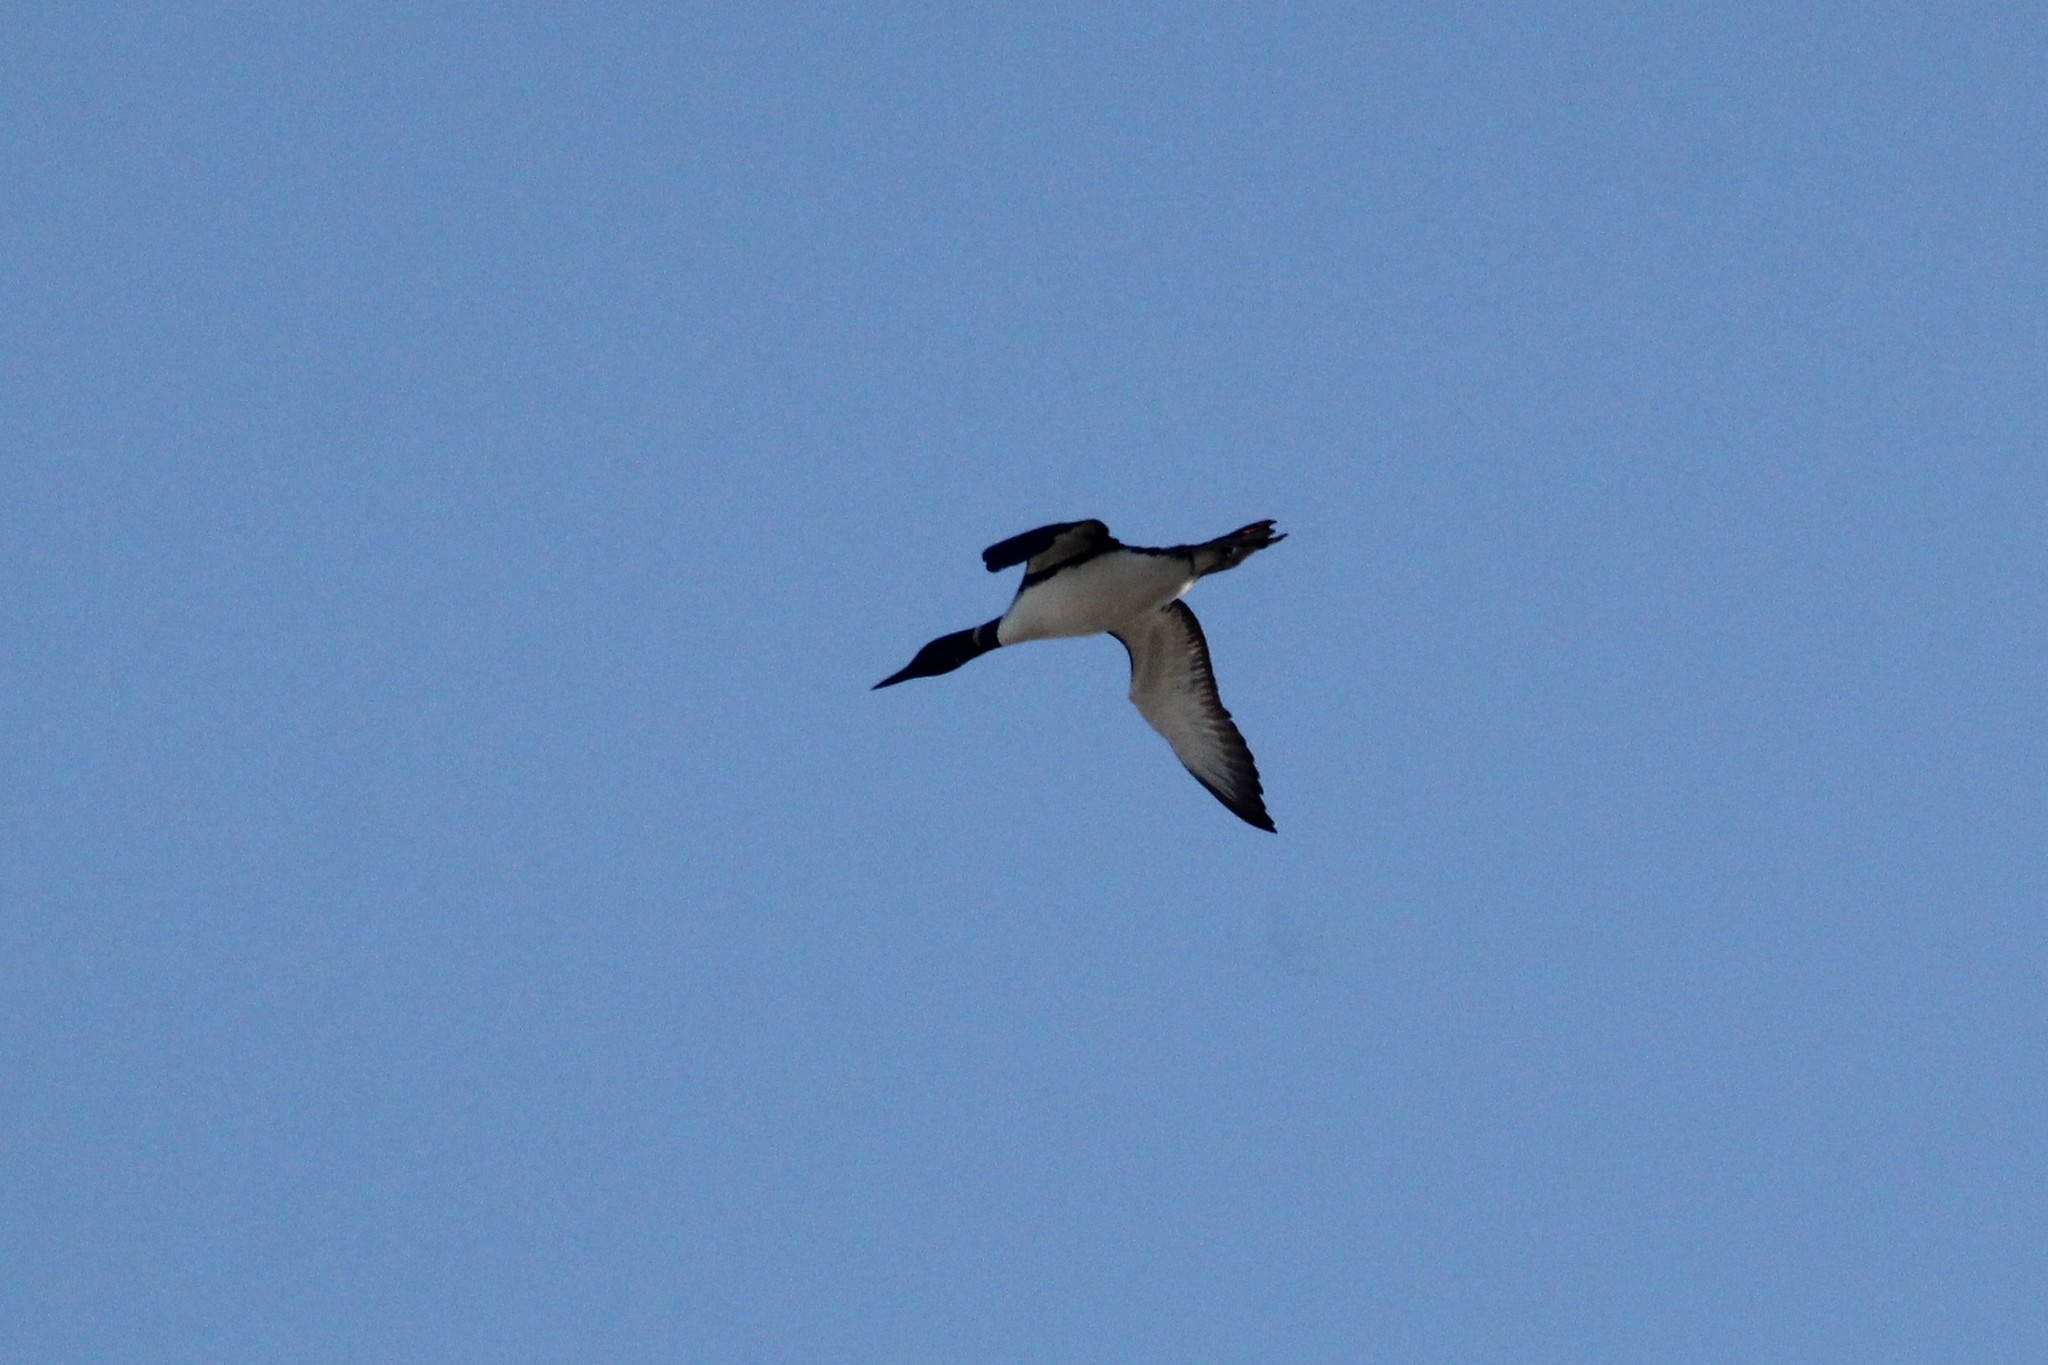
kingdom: Animalia
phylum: Chordata
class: Aves
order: Gaviiformes
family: Gaviidae
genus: Gavia
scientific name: Gavia immer
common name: Common loon
